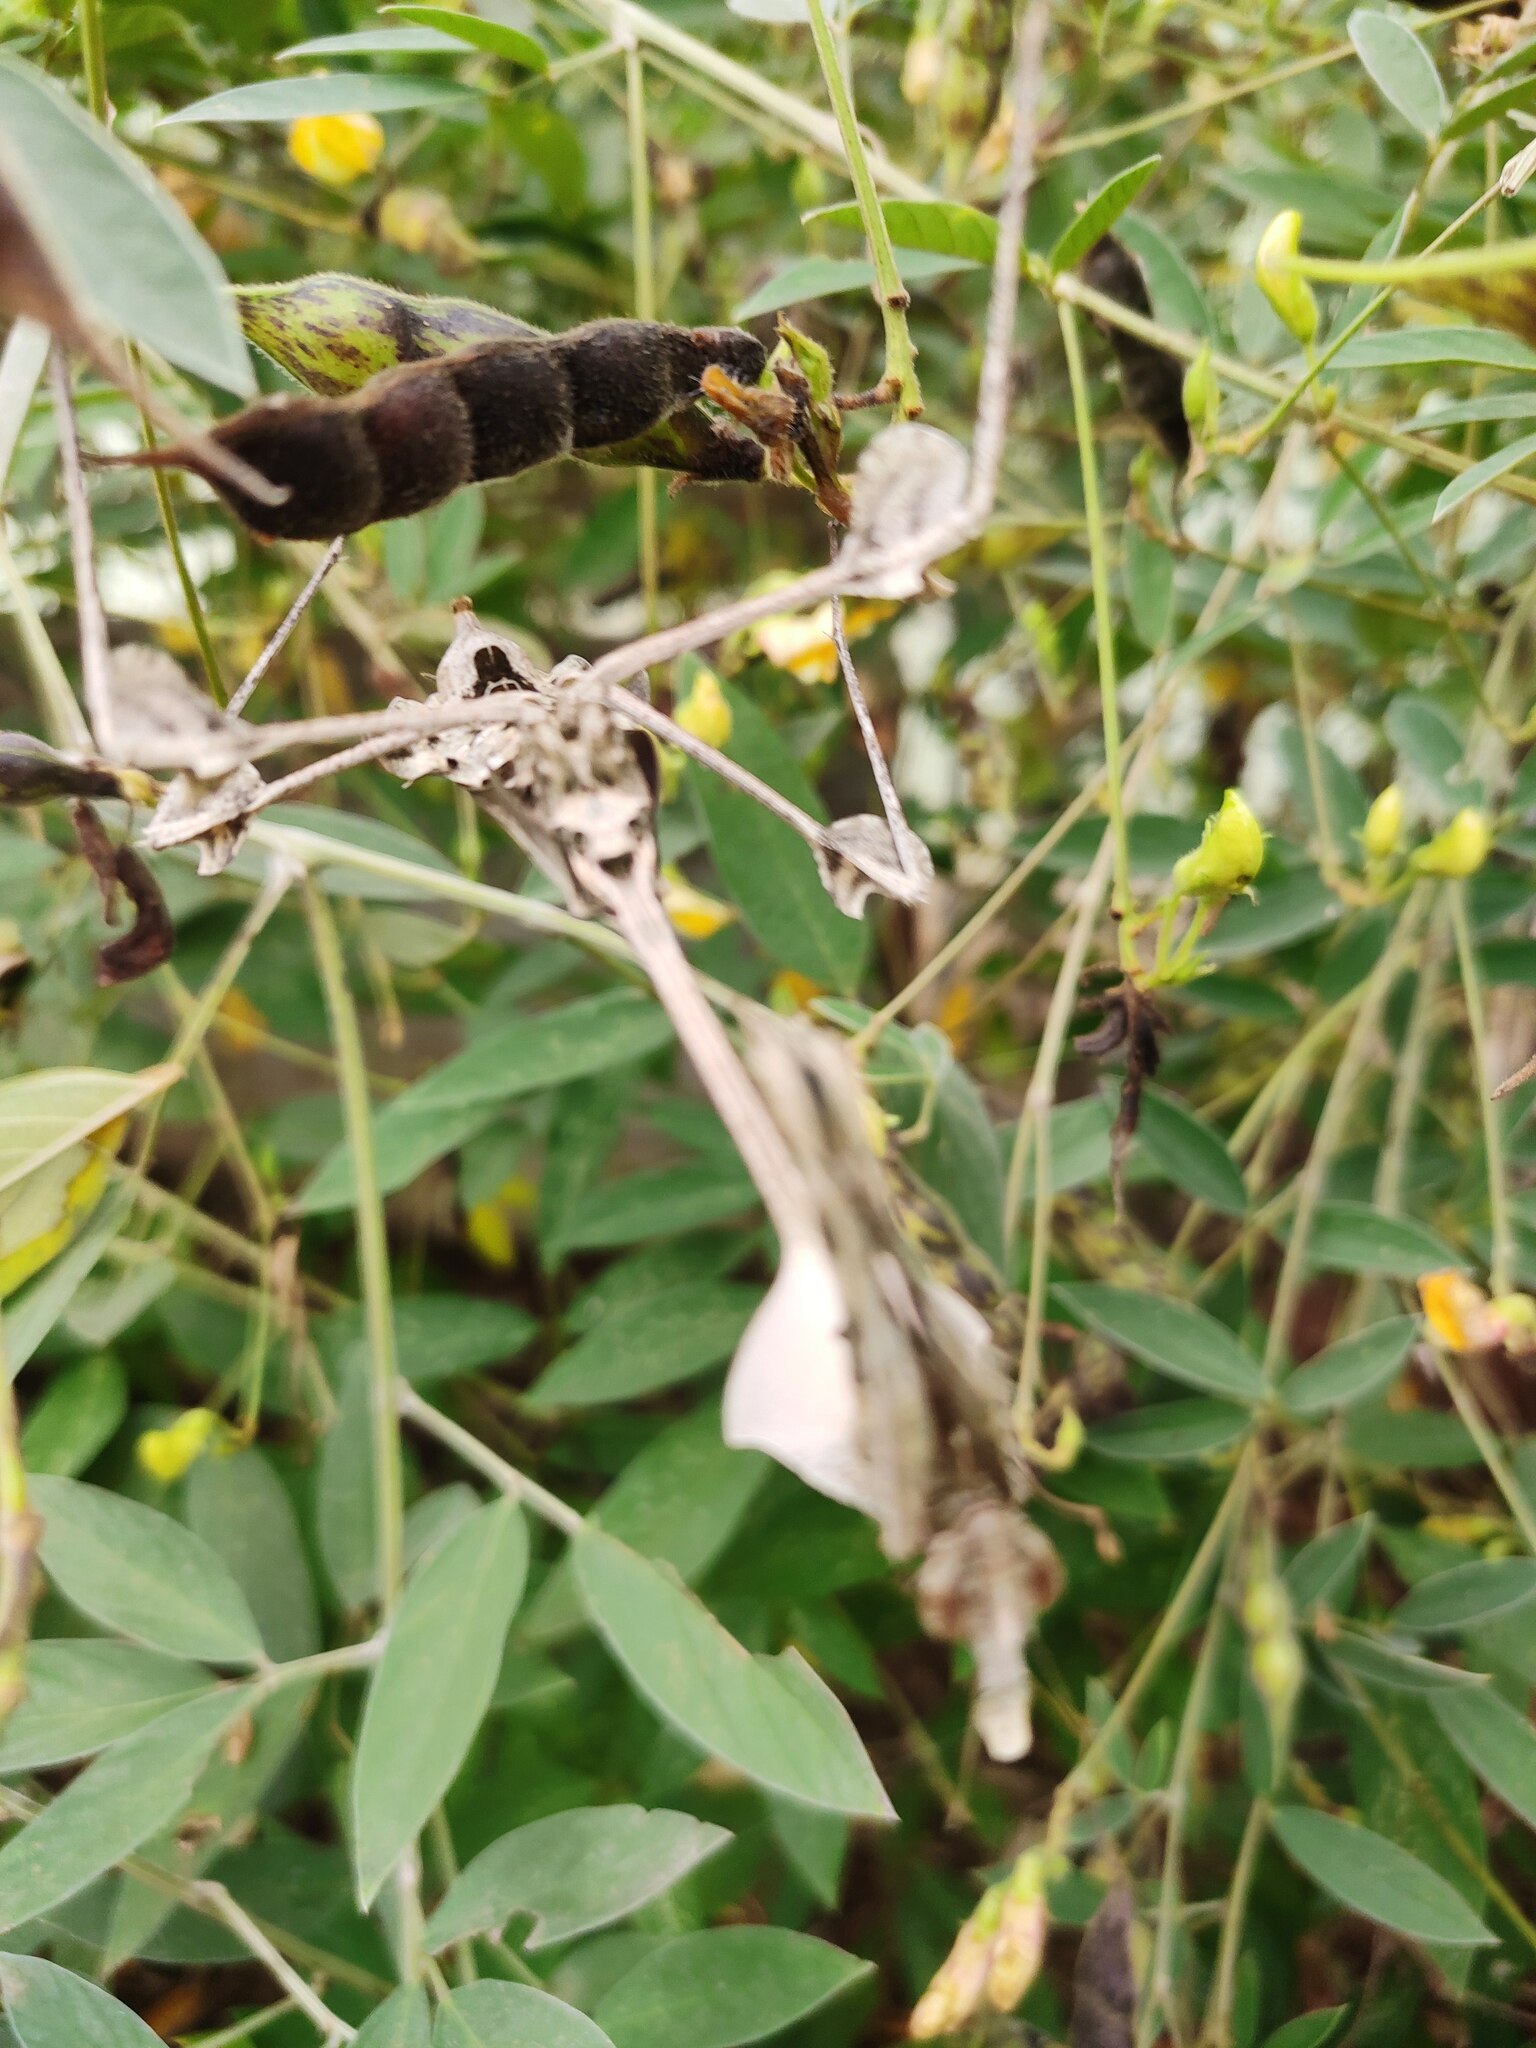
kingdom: Animalia
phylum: Arthropoda
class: Insecta
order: Mantodea
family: Empusidae
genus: Gongylus
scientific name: Gongylus gongylodes
